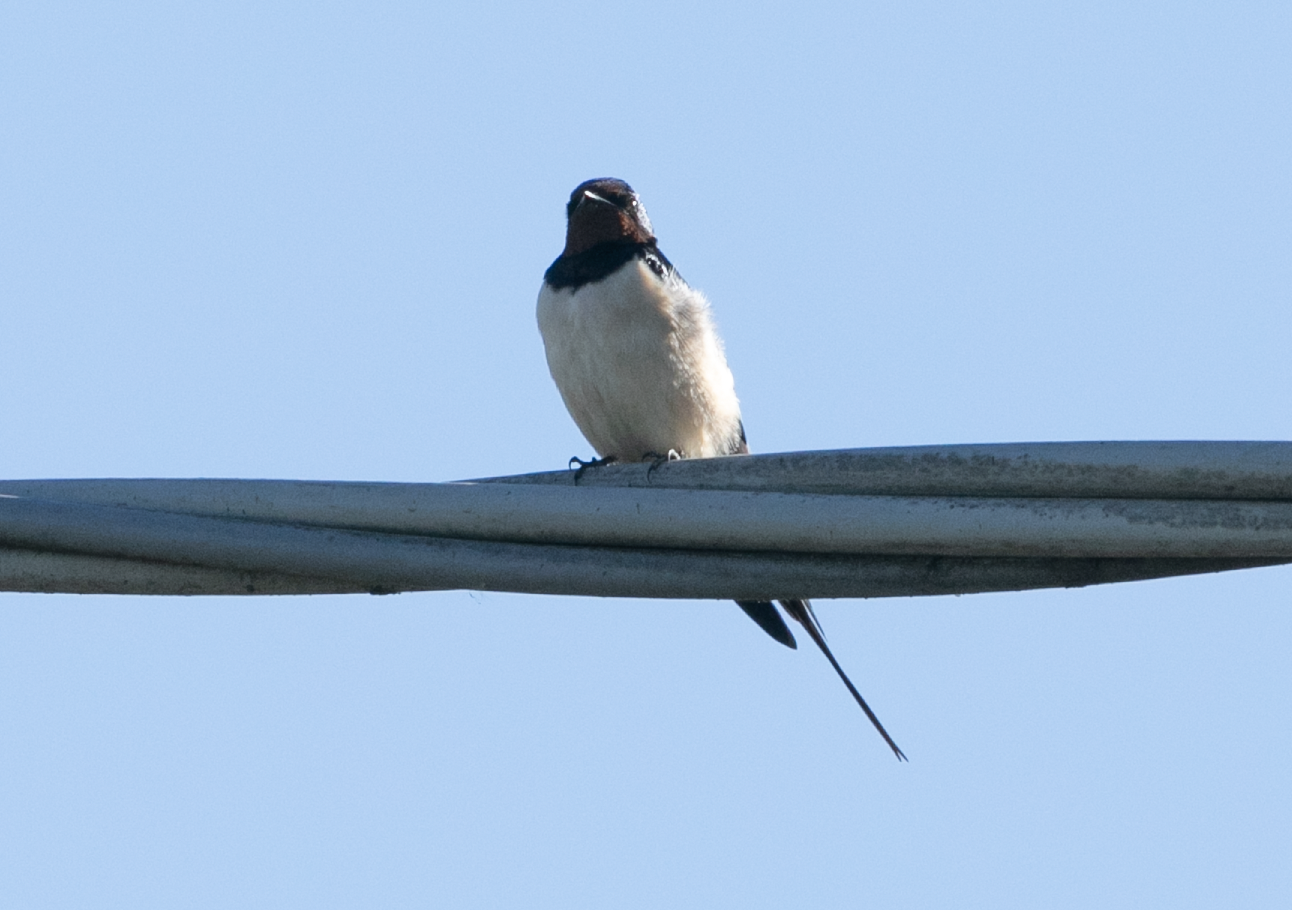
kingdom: Animalia
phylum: Chordata
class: Aves
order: Passeriformes
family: Hirundinidae
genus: Hirundo
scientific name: Hirundo rustica
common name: Barn swallow
